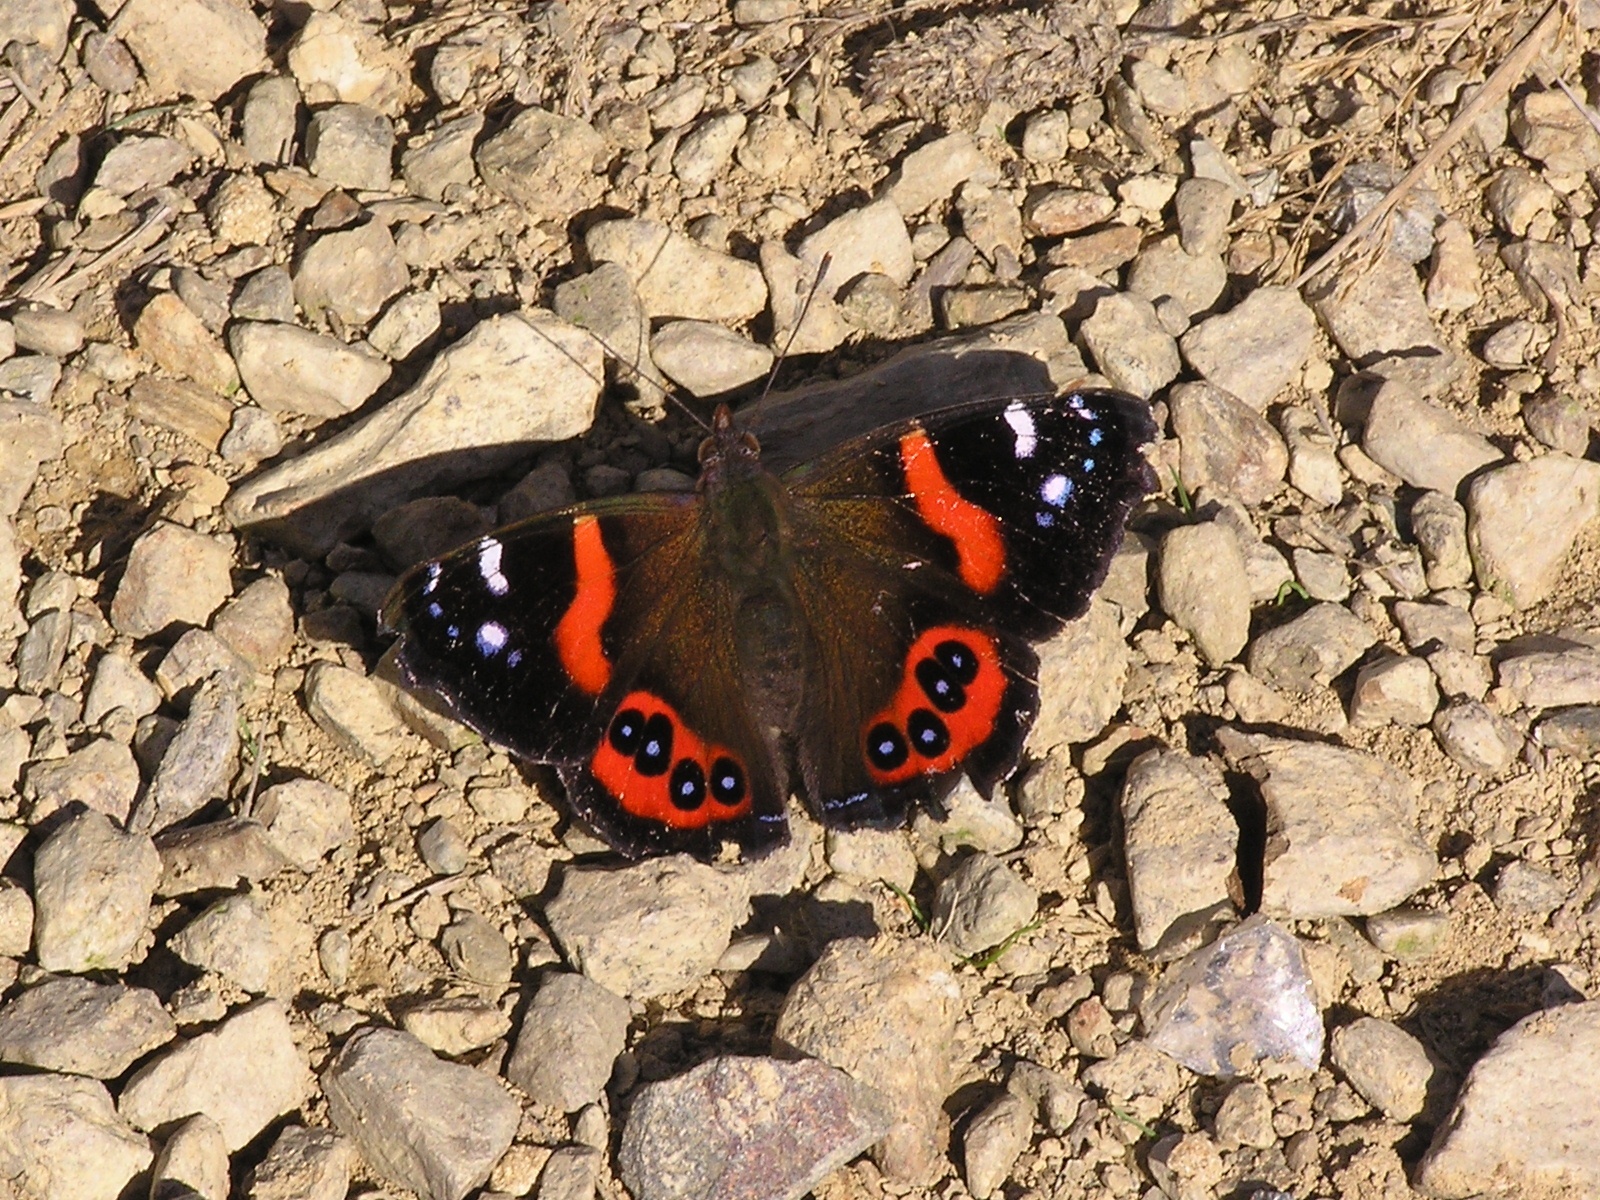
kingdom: Animalia
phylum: Arthropoda
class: Insecta
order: Lepidoptera
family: Nymphalidae
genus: Vanessa
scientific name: Vanessa gonerilla
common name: New zealand red admiral
